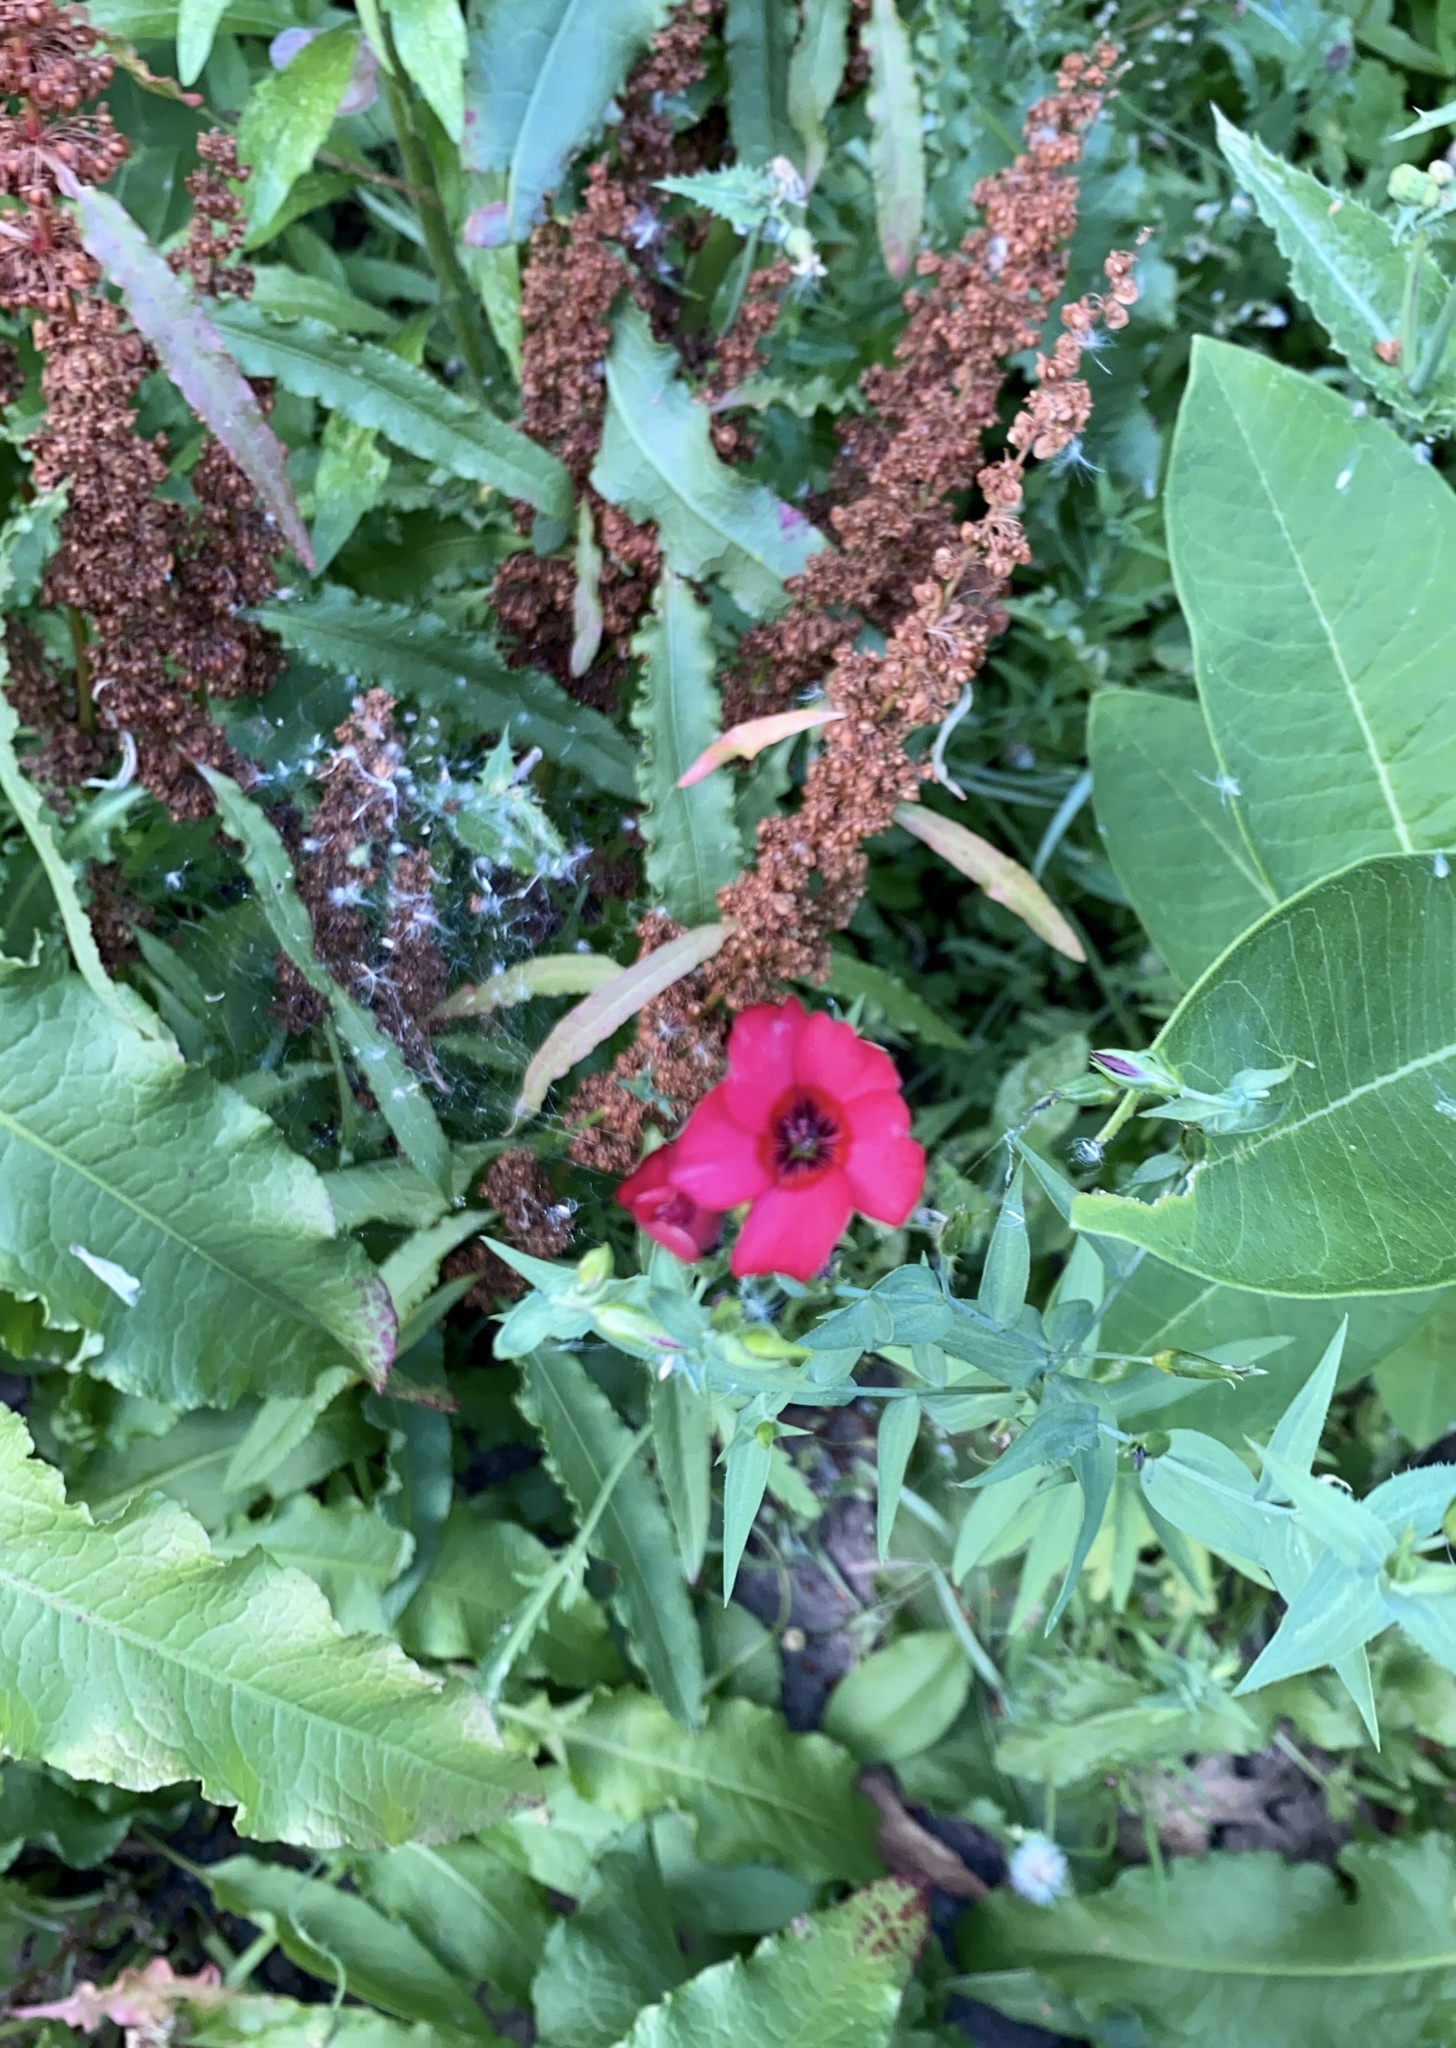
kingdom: Plantae
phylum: Tracheophyta
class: Magnoliopsida
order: Malpighiales
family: Linaceae
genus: Linum
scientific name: Linum grandiflorum
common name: Crimson flax
